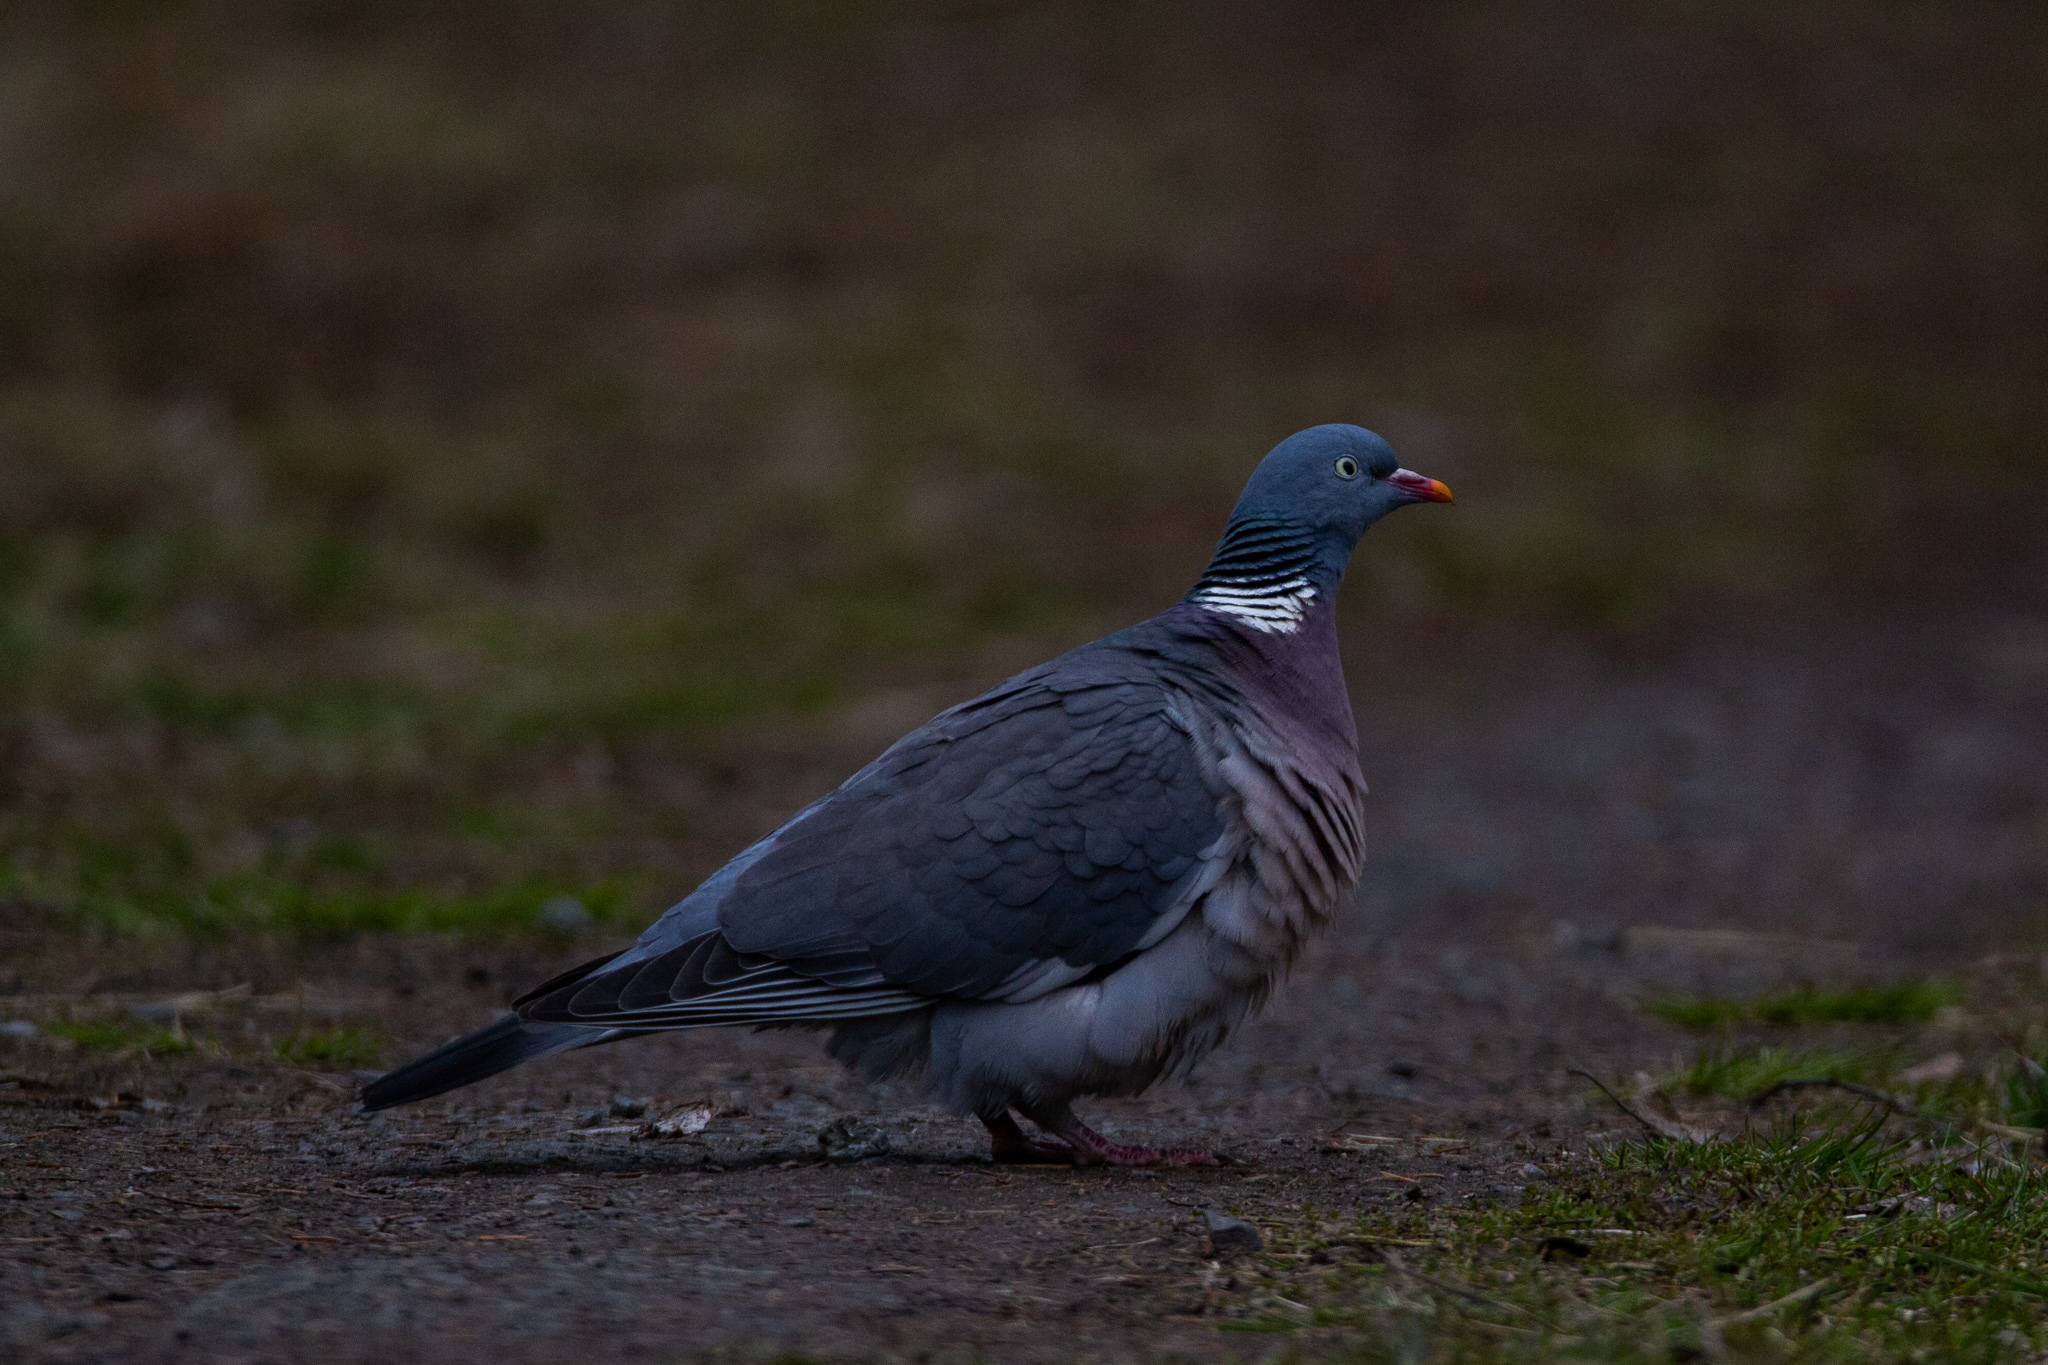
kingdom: Animalia
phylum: Chordata
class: Aves
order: Columbiformes
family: Columbidae
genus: Columba
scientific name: Columba palumbus
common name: Common wood pigeon
